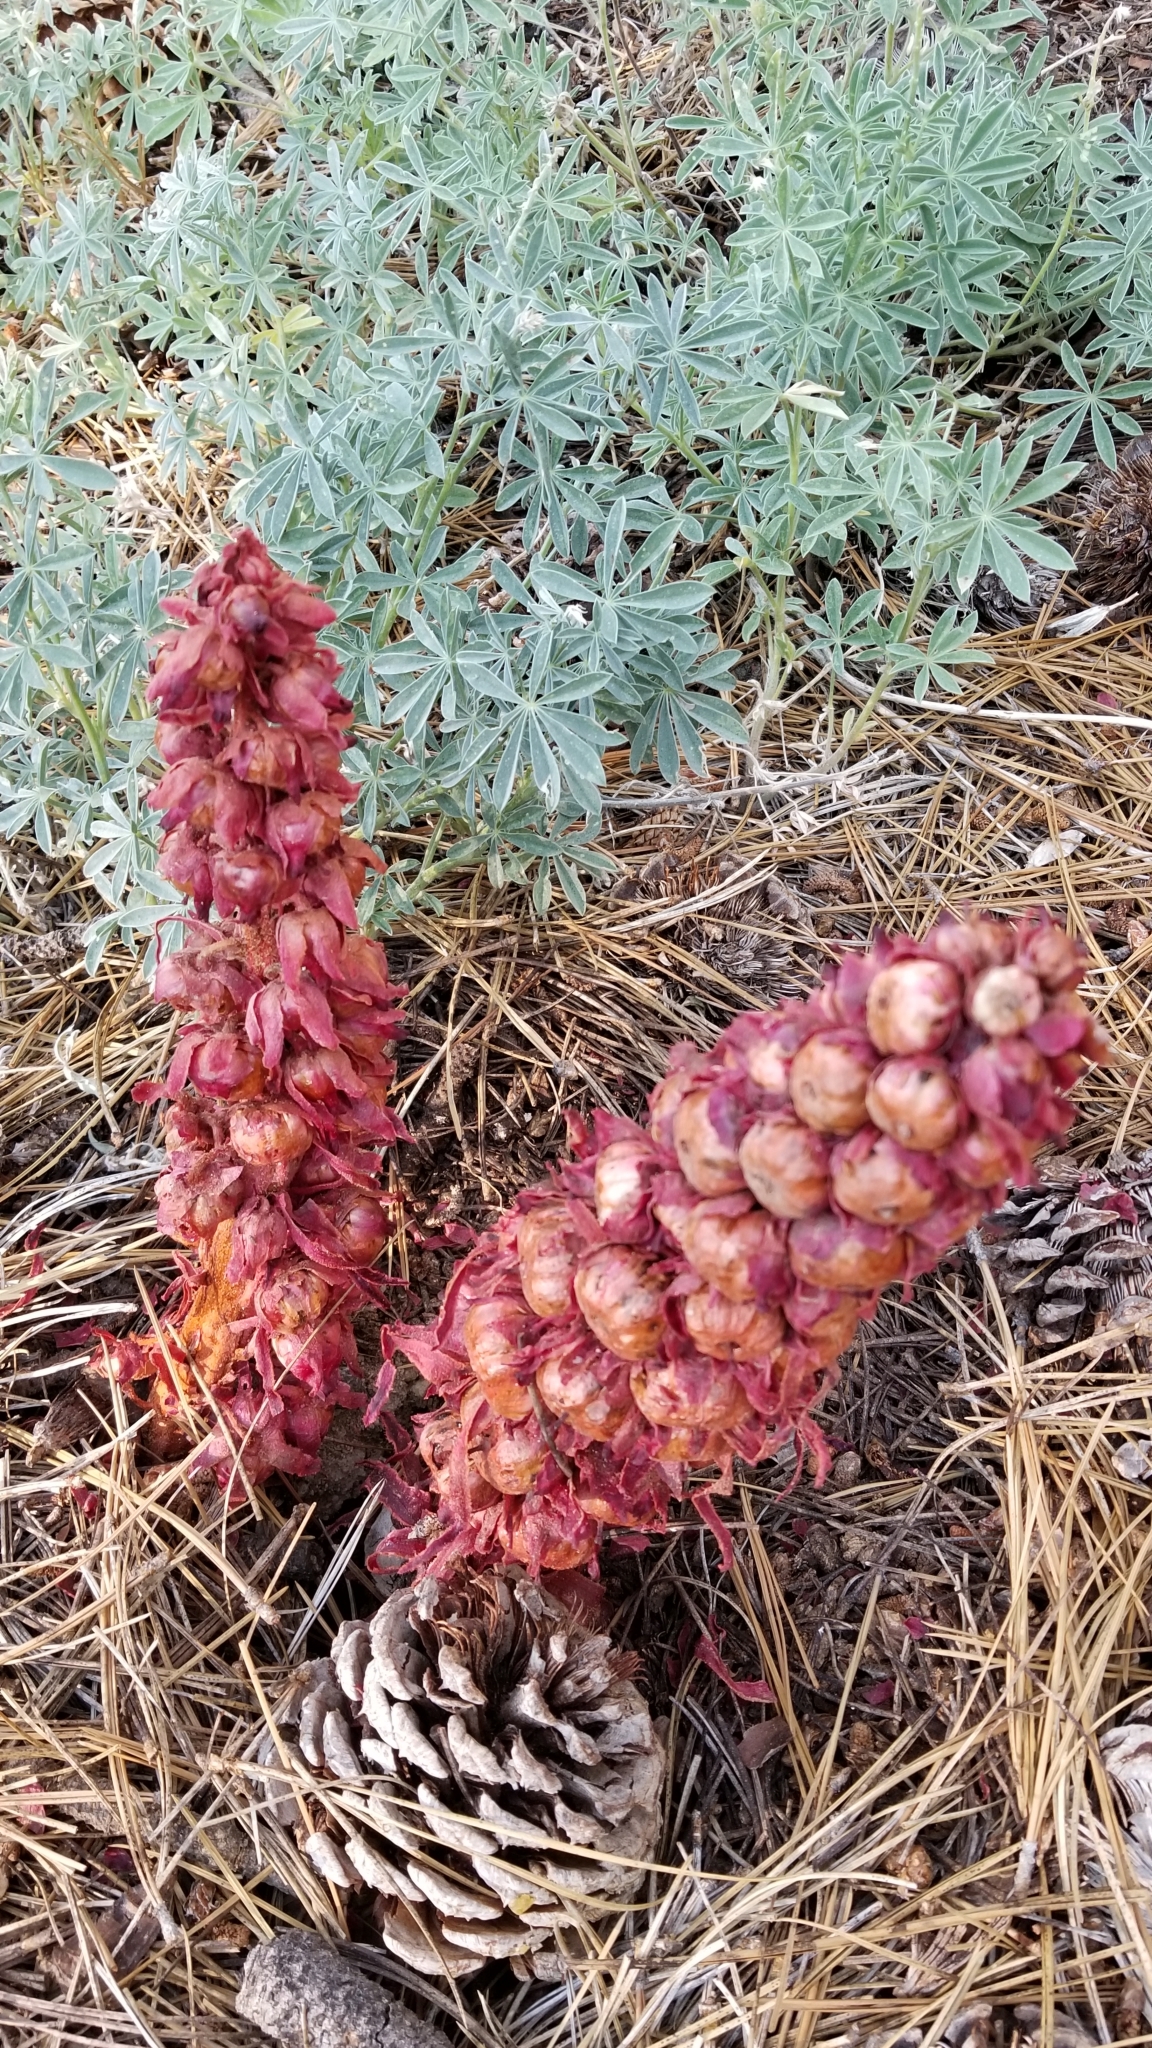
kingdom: Plantae
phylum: Tracheophyta
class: Magnoliopsida
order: Ericales
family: Ericaceae
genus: Sarcodes
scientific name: Sarcodes sanguinea
